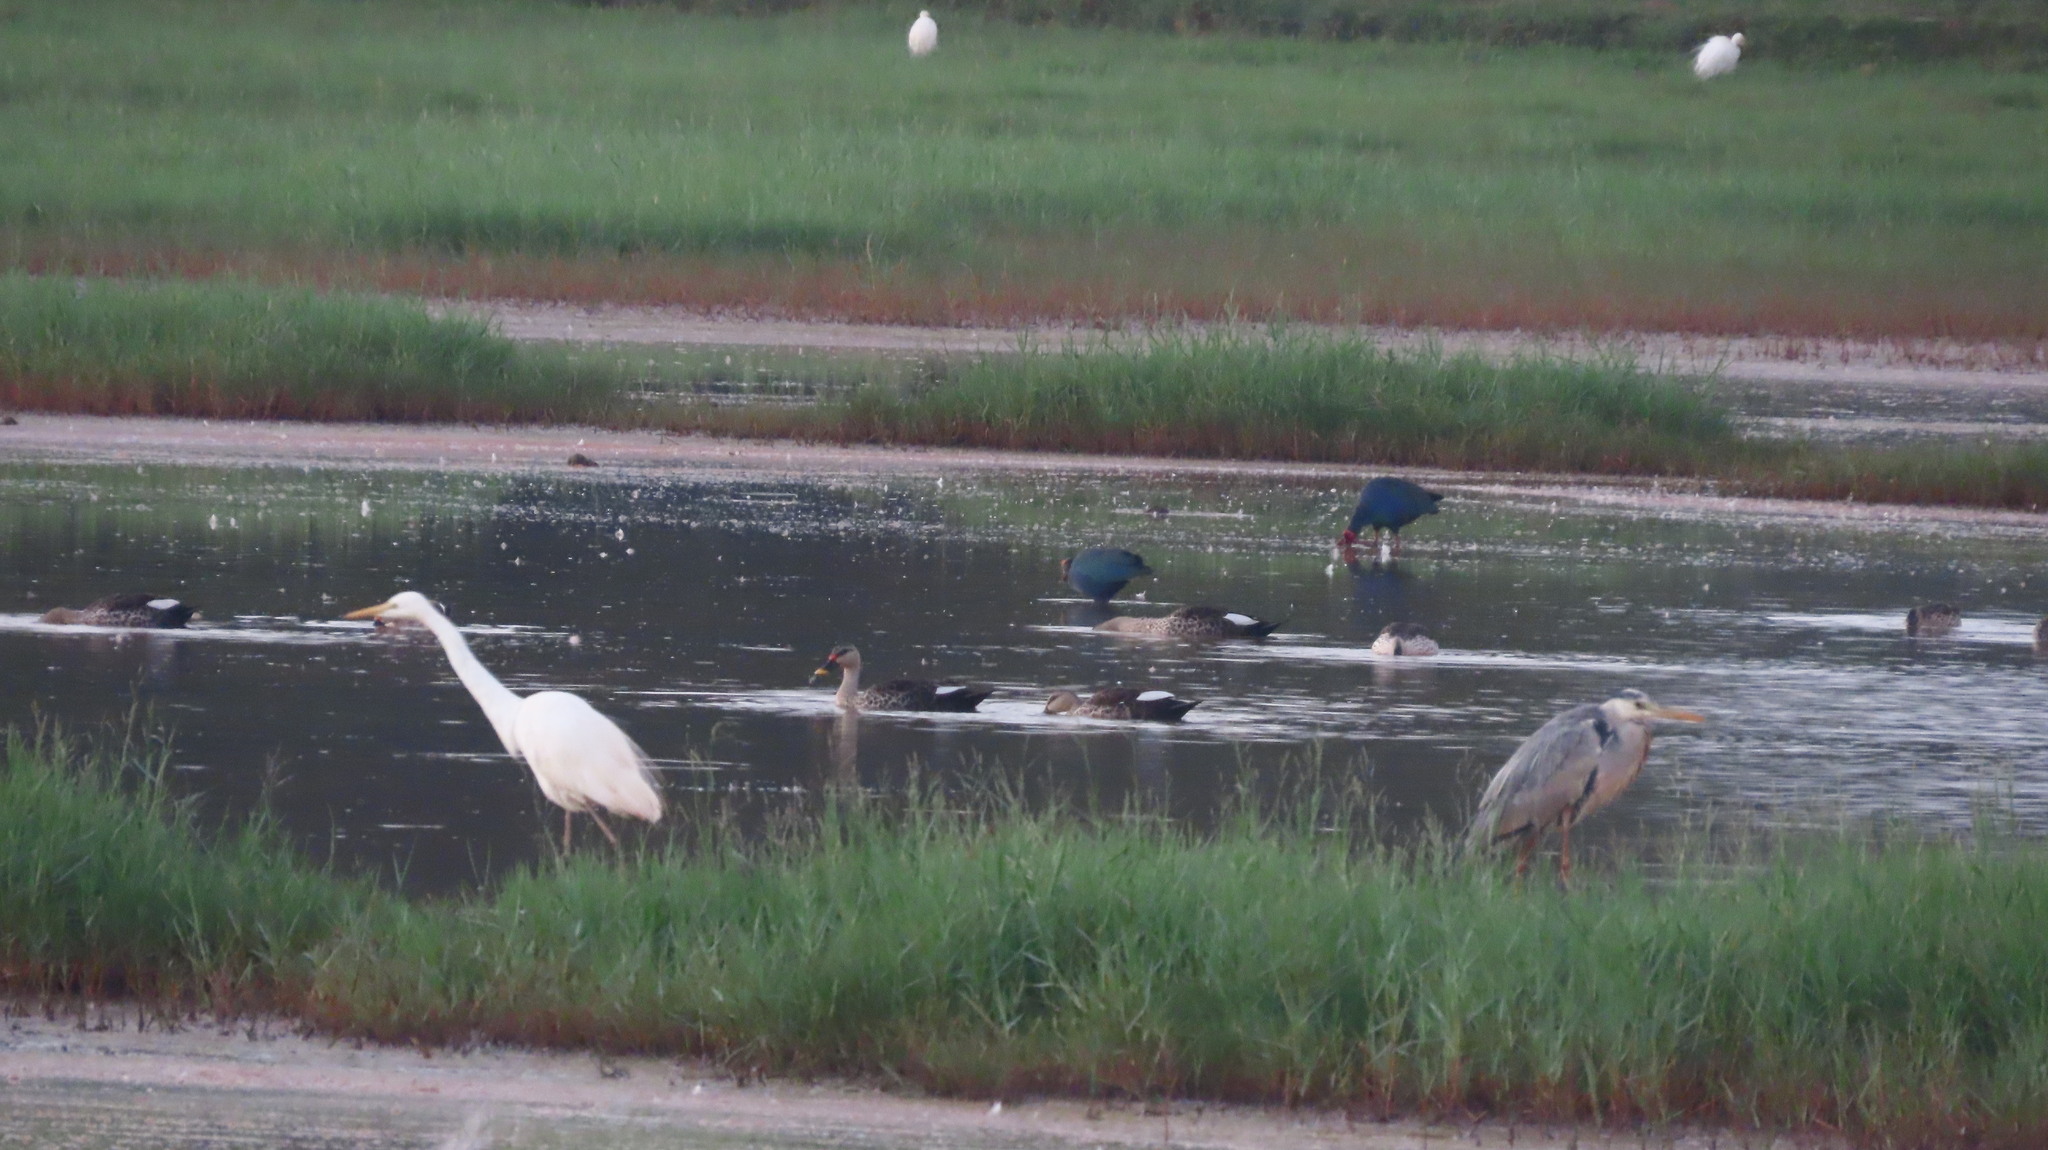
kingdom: Animalia
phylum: Chordata
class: Aves
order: Anseriformes
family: Anatidae
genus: Anas
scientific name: Anas poecilorhyncha
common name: Indian spot-billed duck
